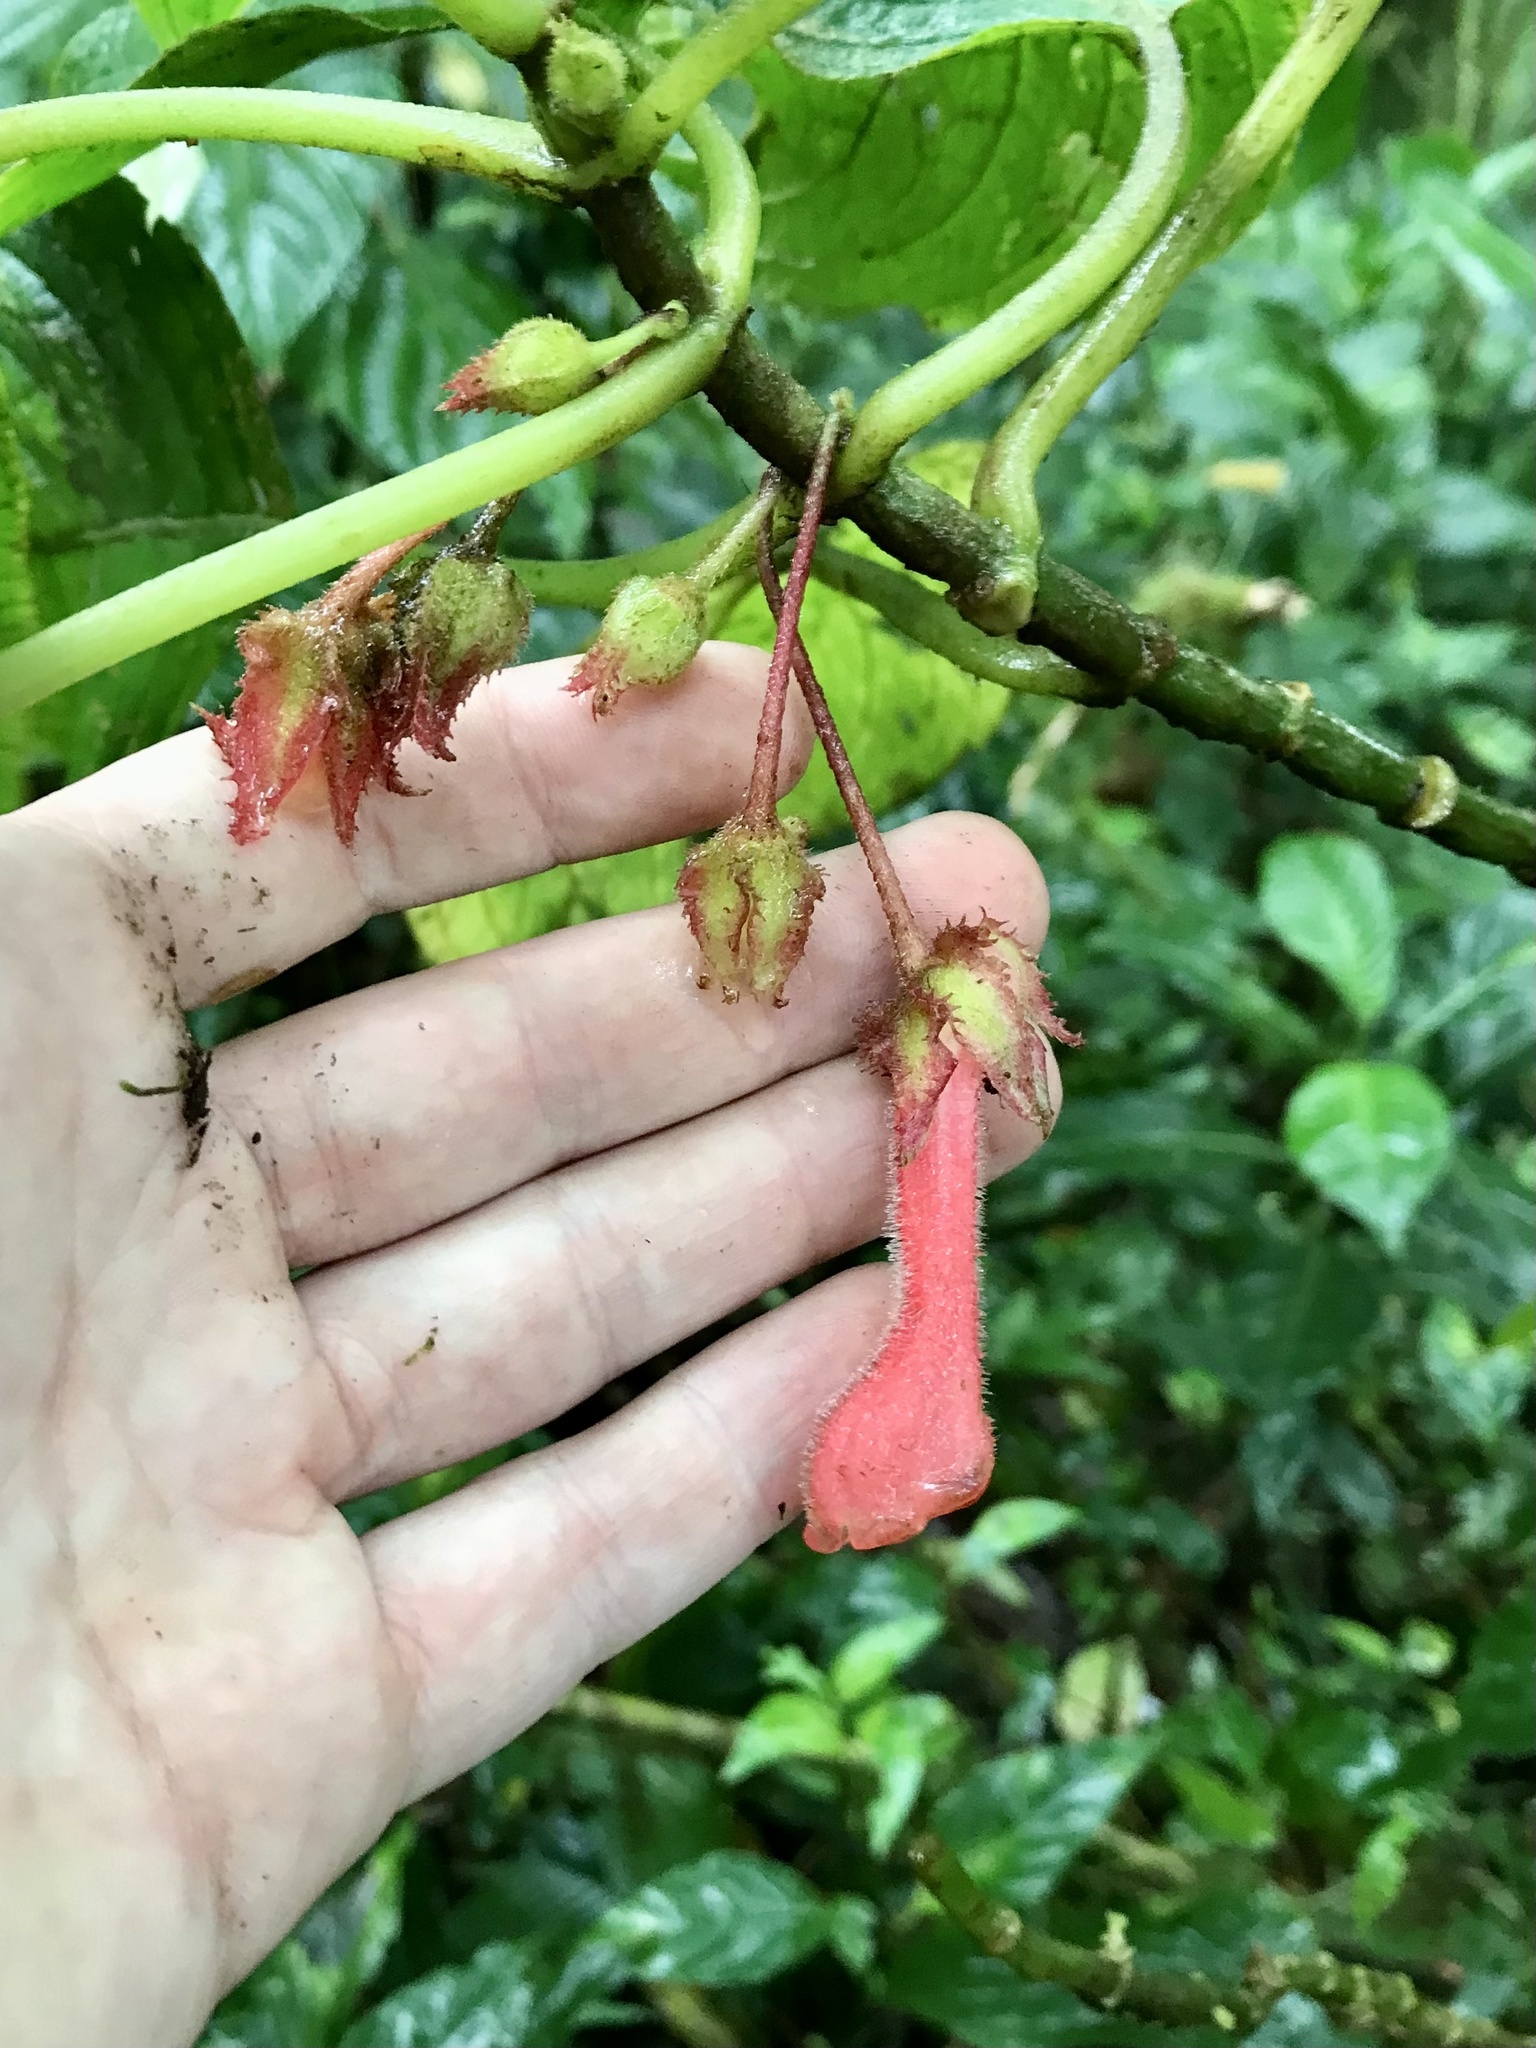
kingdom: Plantae
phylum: Tracheophyta
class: Magnoliopsida
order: Lamiales
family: Gesneriaceae
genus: Glossoloma
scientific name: Glossoloma tetragonum
